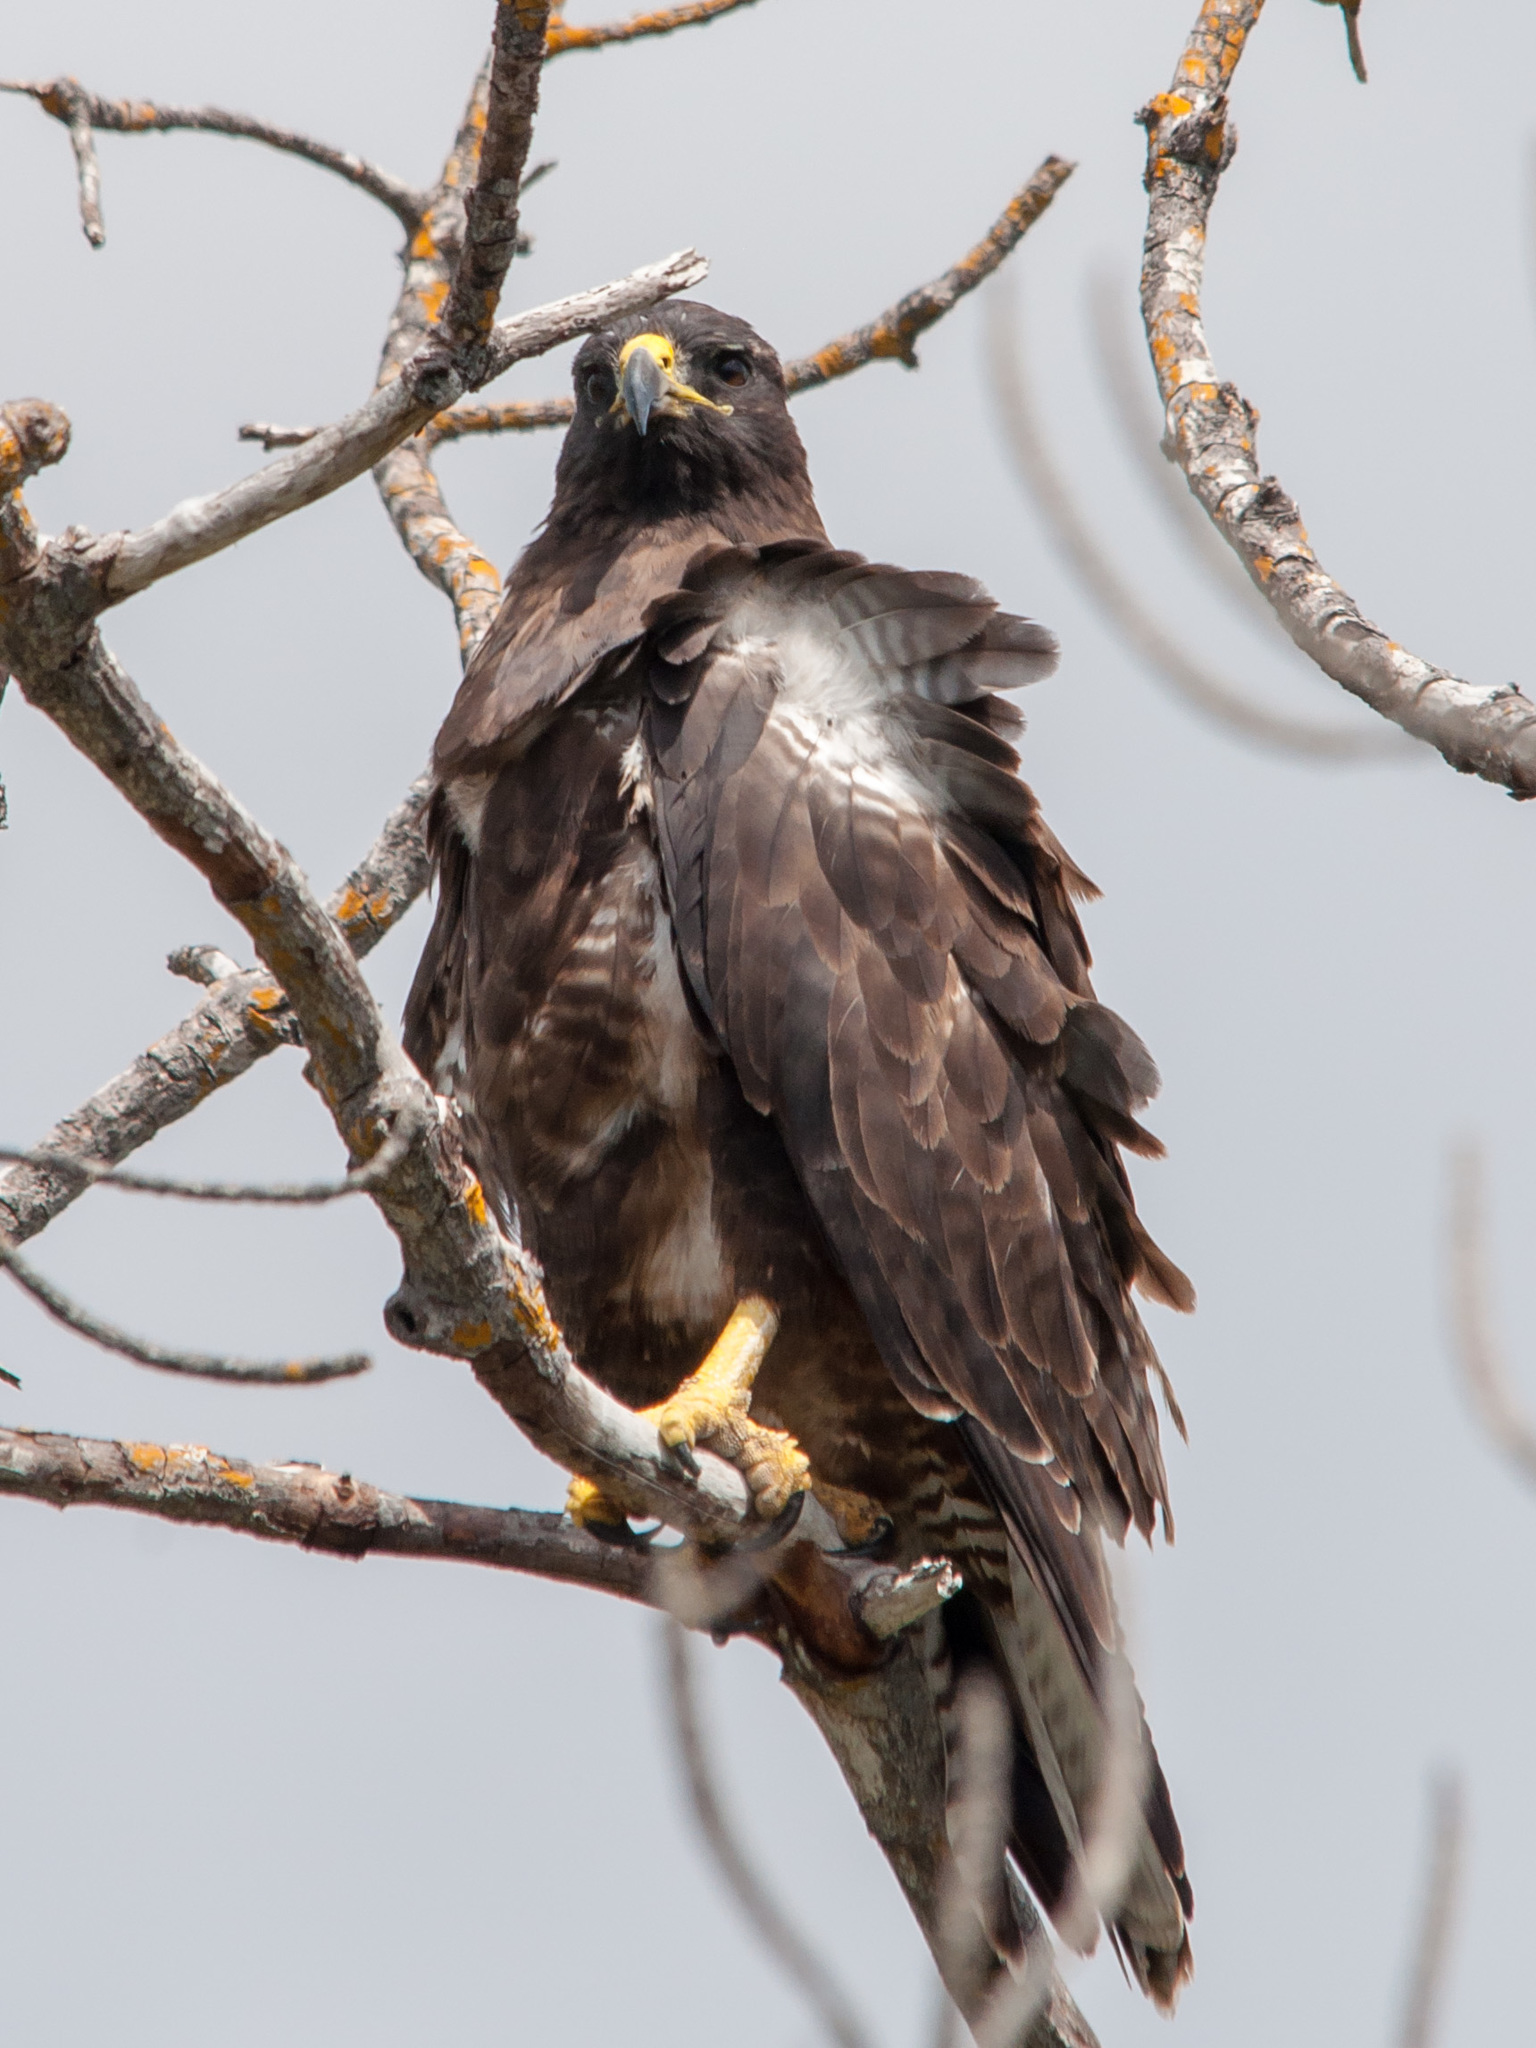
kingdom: Animalia
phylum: Chordata
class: Aves
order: Accipitriformes
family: Accipitridae
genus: Buteo
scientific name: Buteo galapagoensis
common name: Galapagos hawk
